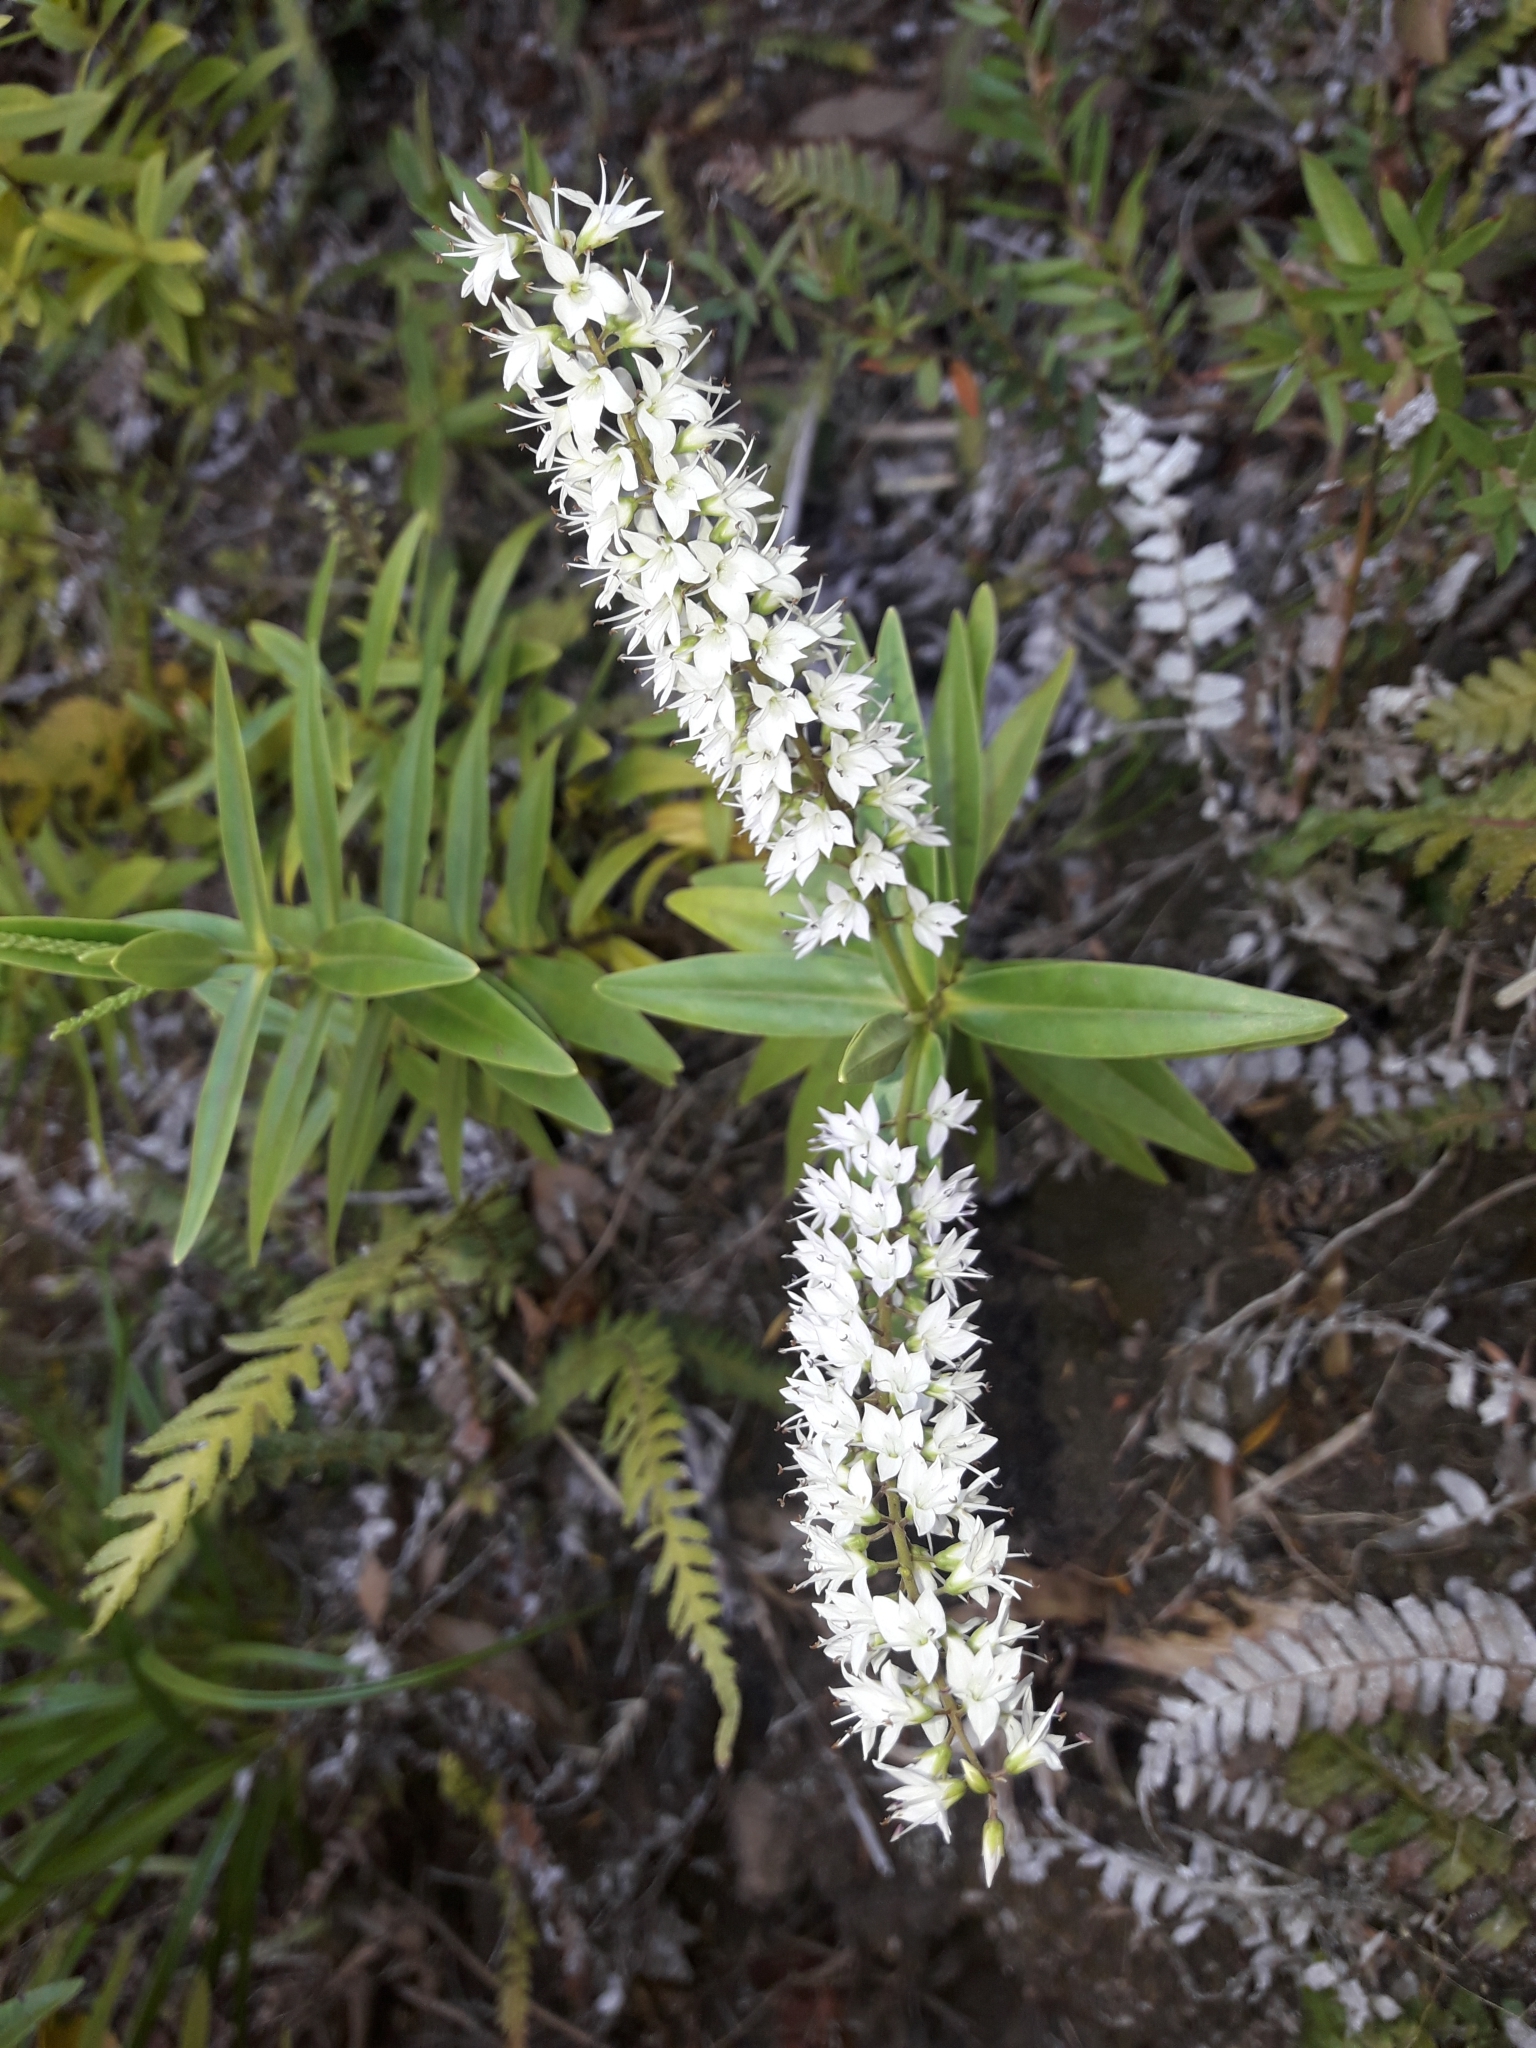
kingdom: Plantae
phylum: Tracheophyta
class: Magnoliopsida
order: Lamiales
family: Plantaginaceae
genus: Veronica
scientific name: Veronica ligustrifolia
